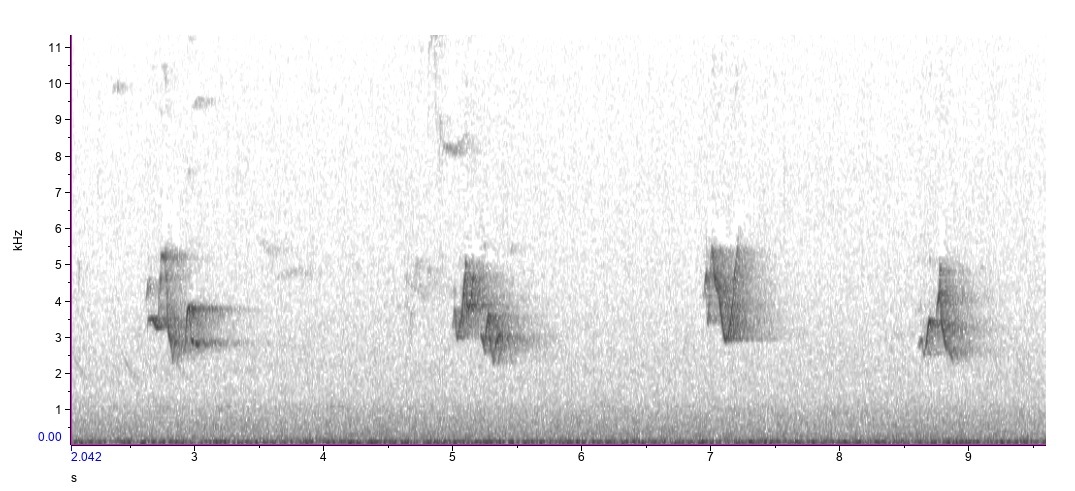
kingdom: Animalia
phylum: Chordata
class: Aves
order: Passeriformes
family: Vireonidae
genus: Vireo
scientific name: Vireo olivaceus
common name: Red-eyed vireo
